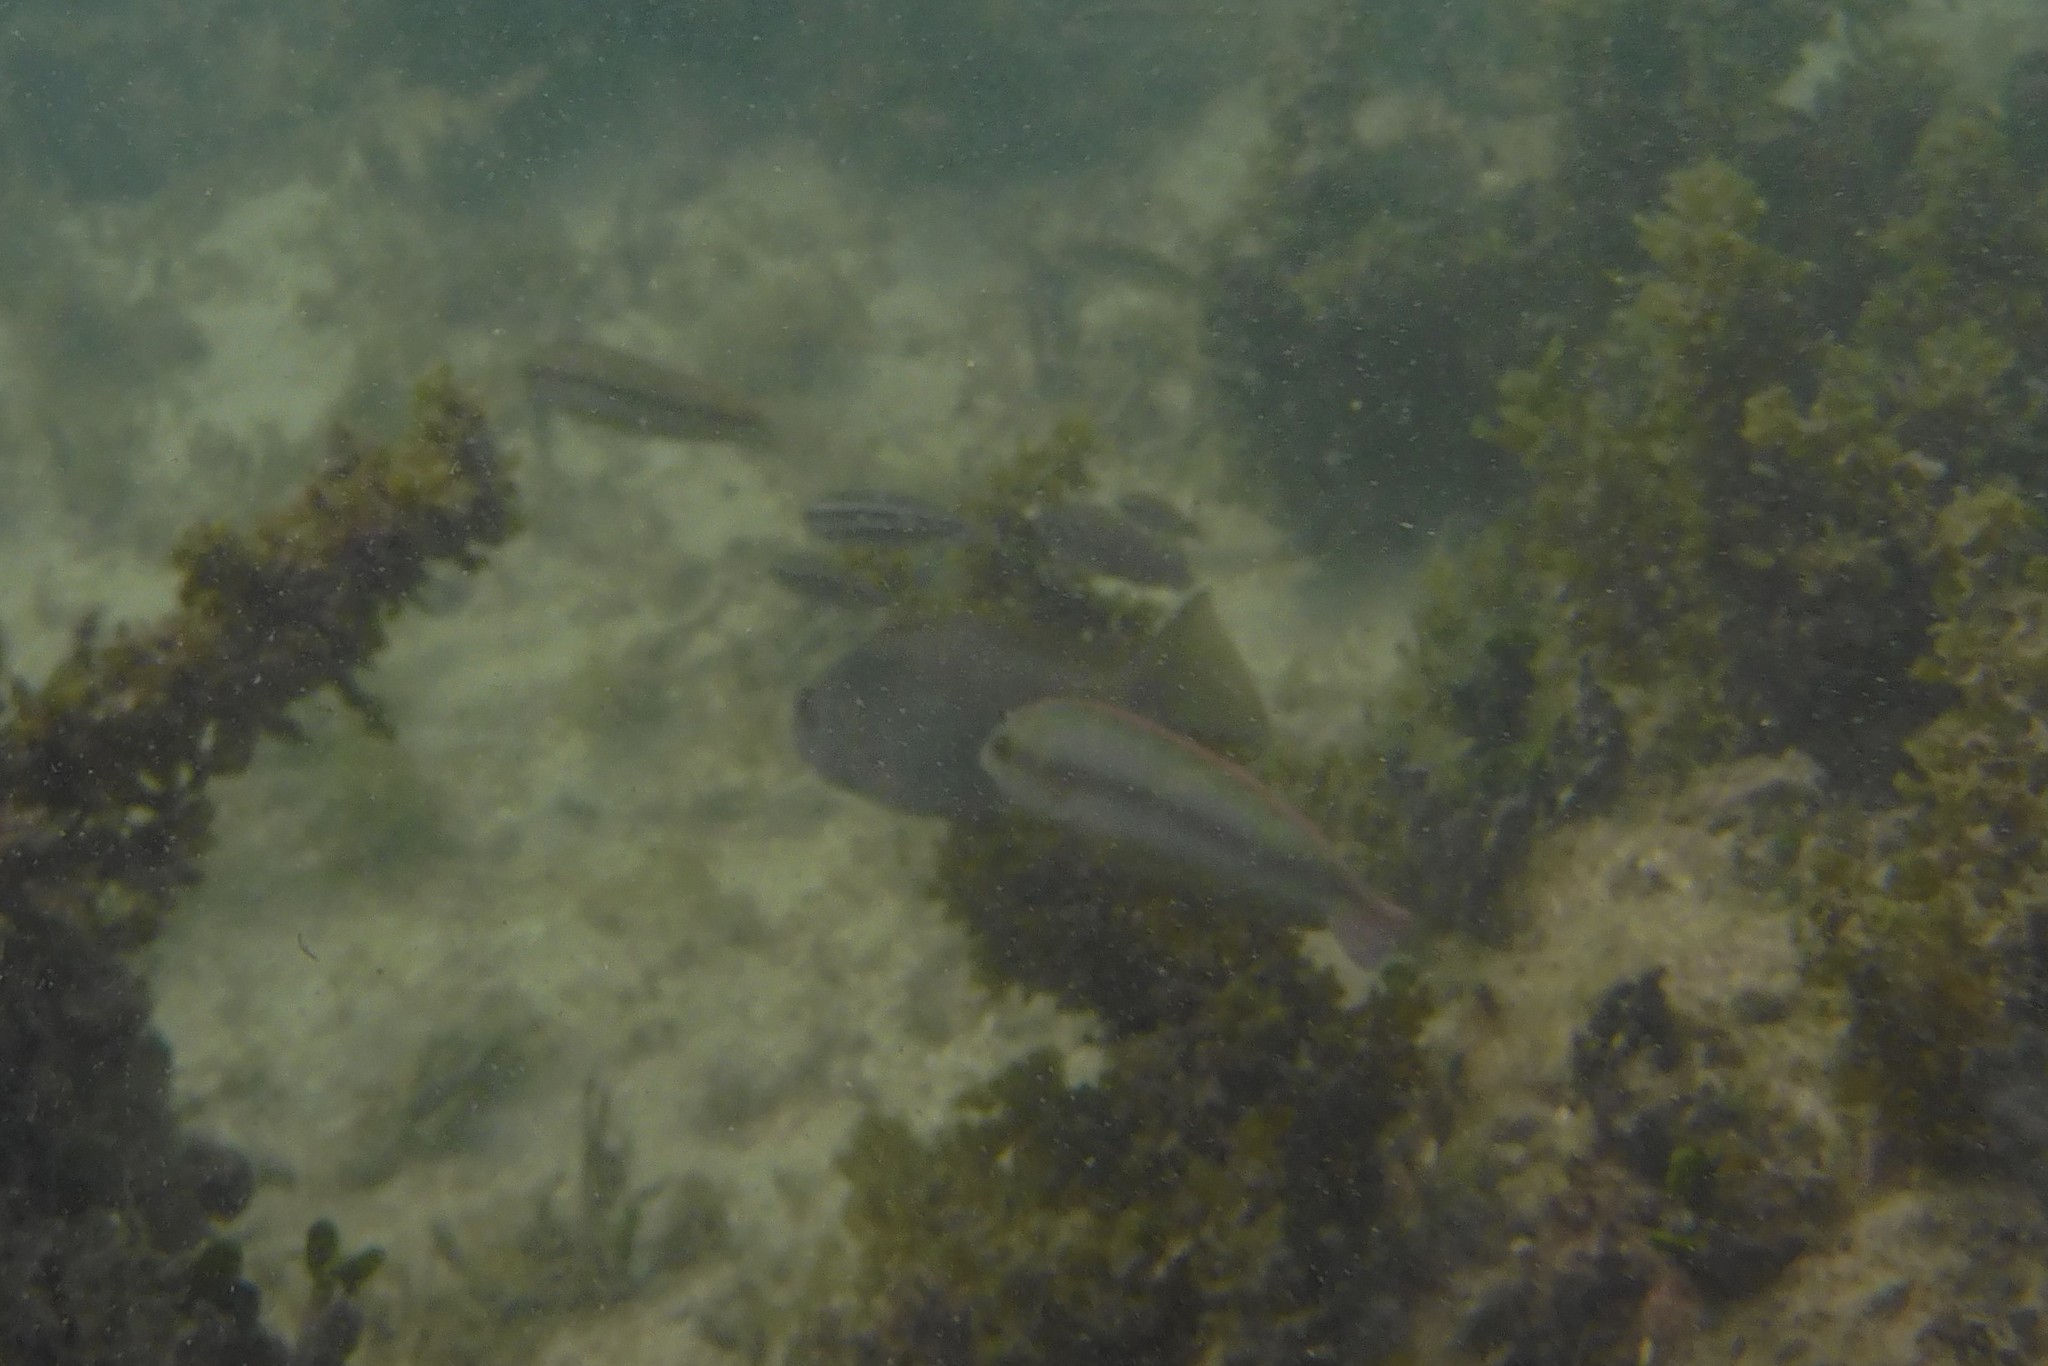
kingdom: Animalia
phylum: Chordata
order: Perciformes
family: Labridae
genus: Halichoeres
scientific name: Halichoeres bivittatus
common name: Slippery dick
